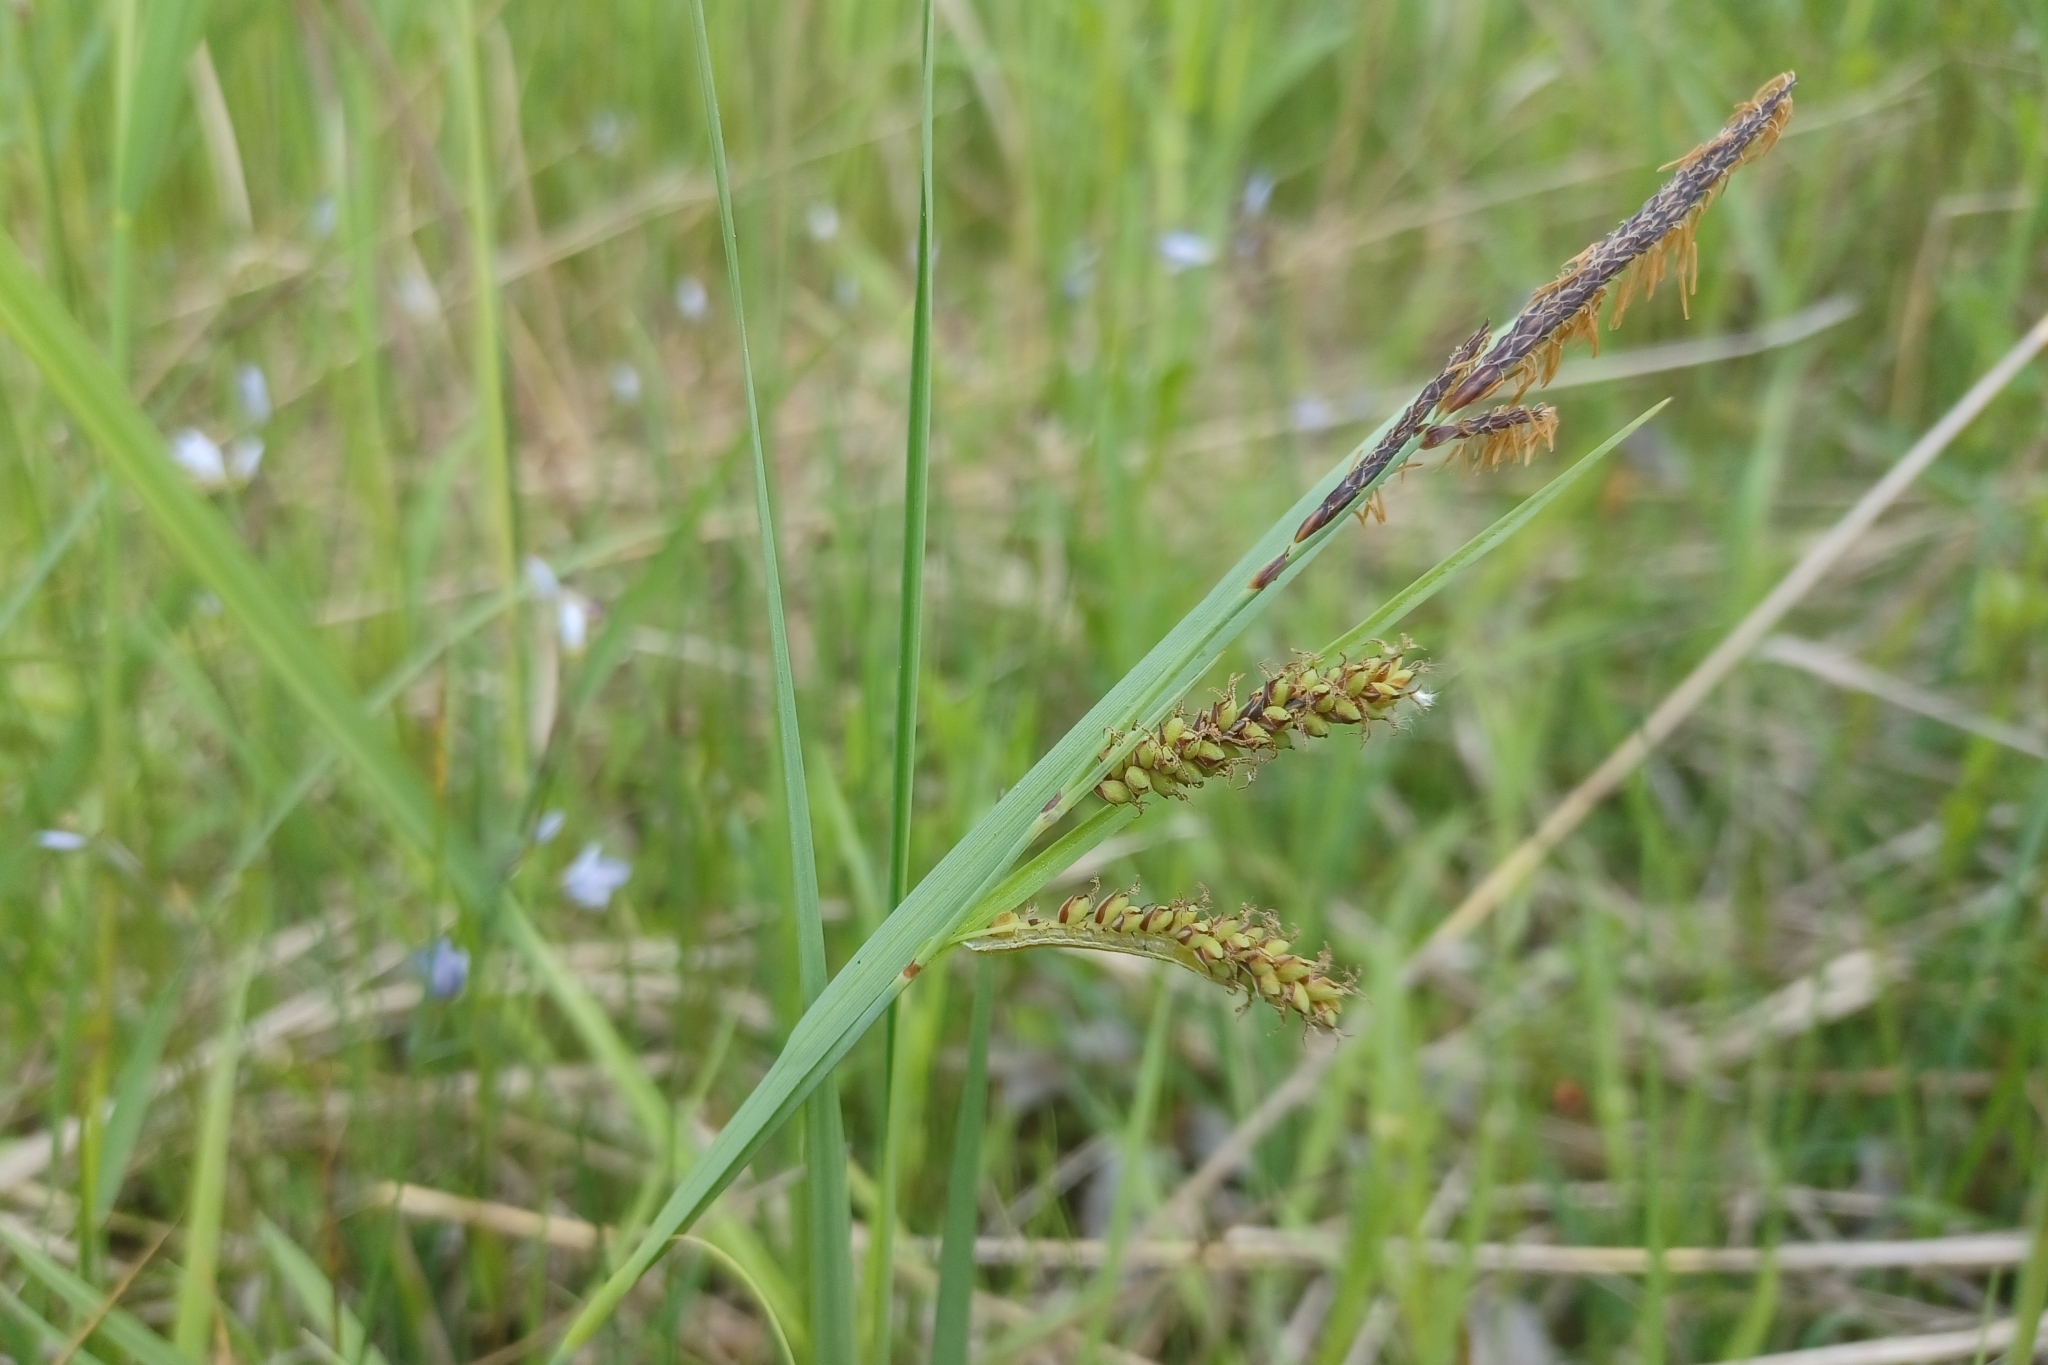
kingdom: Plantae
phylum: Tracheophyta
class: Liliopsida
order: Poales
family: Cyperaceae
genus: Carex
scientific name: Carex flacca
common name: Glaucous sedge
